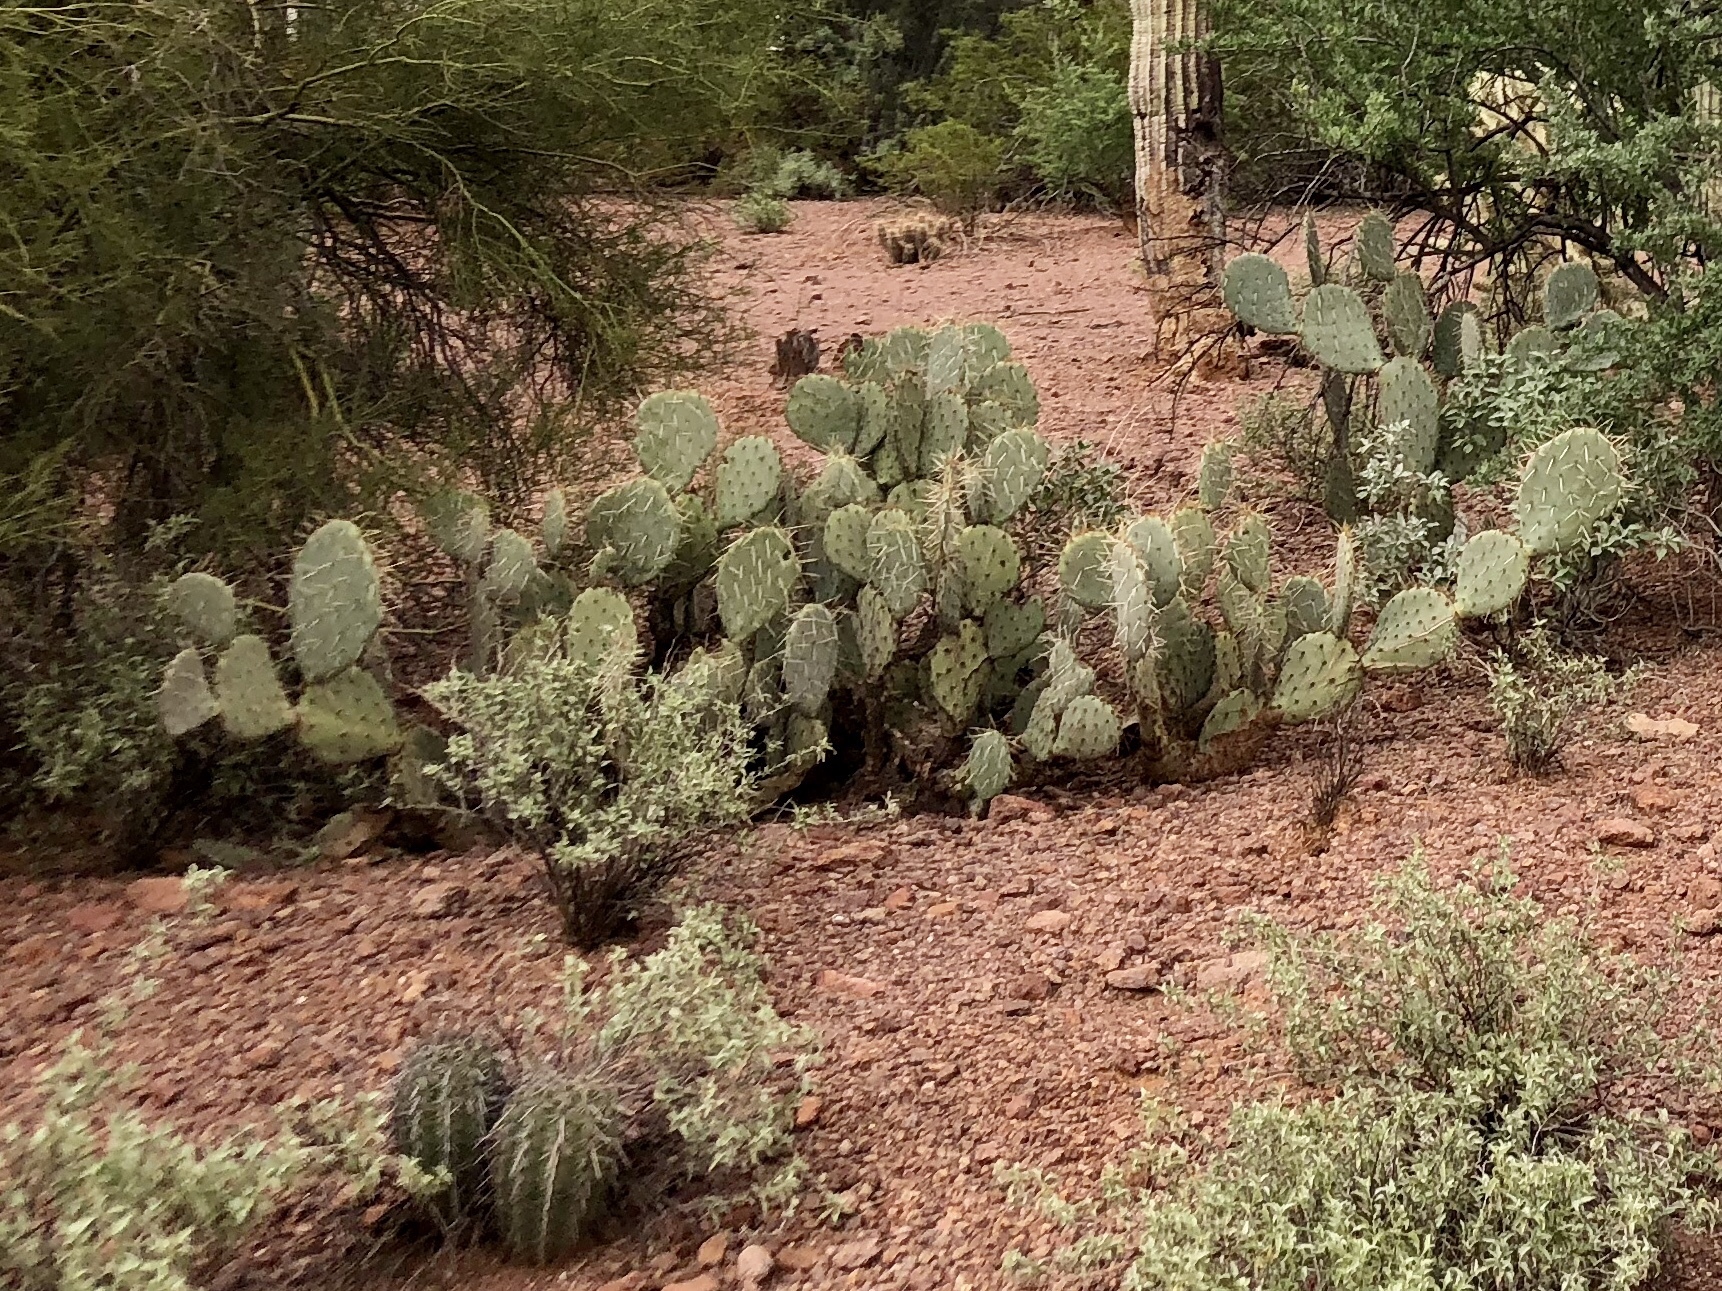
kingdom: Plantae
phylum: Tracheophyta
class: Magnoliopsida
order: Caryophyllales
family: Cactaceae
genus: Opuntia
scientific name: Opuntia engelmannii
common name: Cactus-apple
